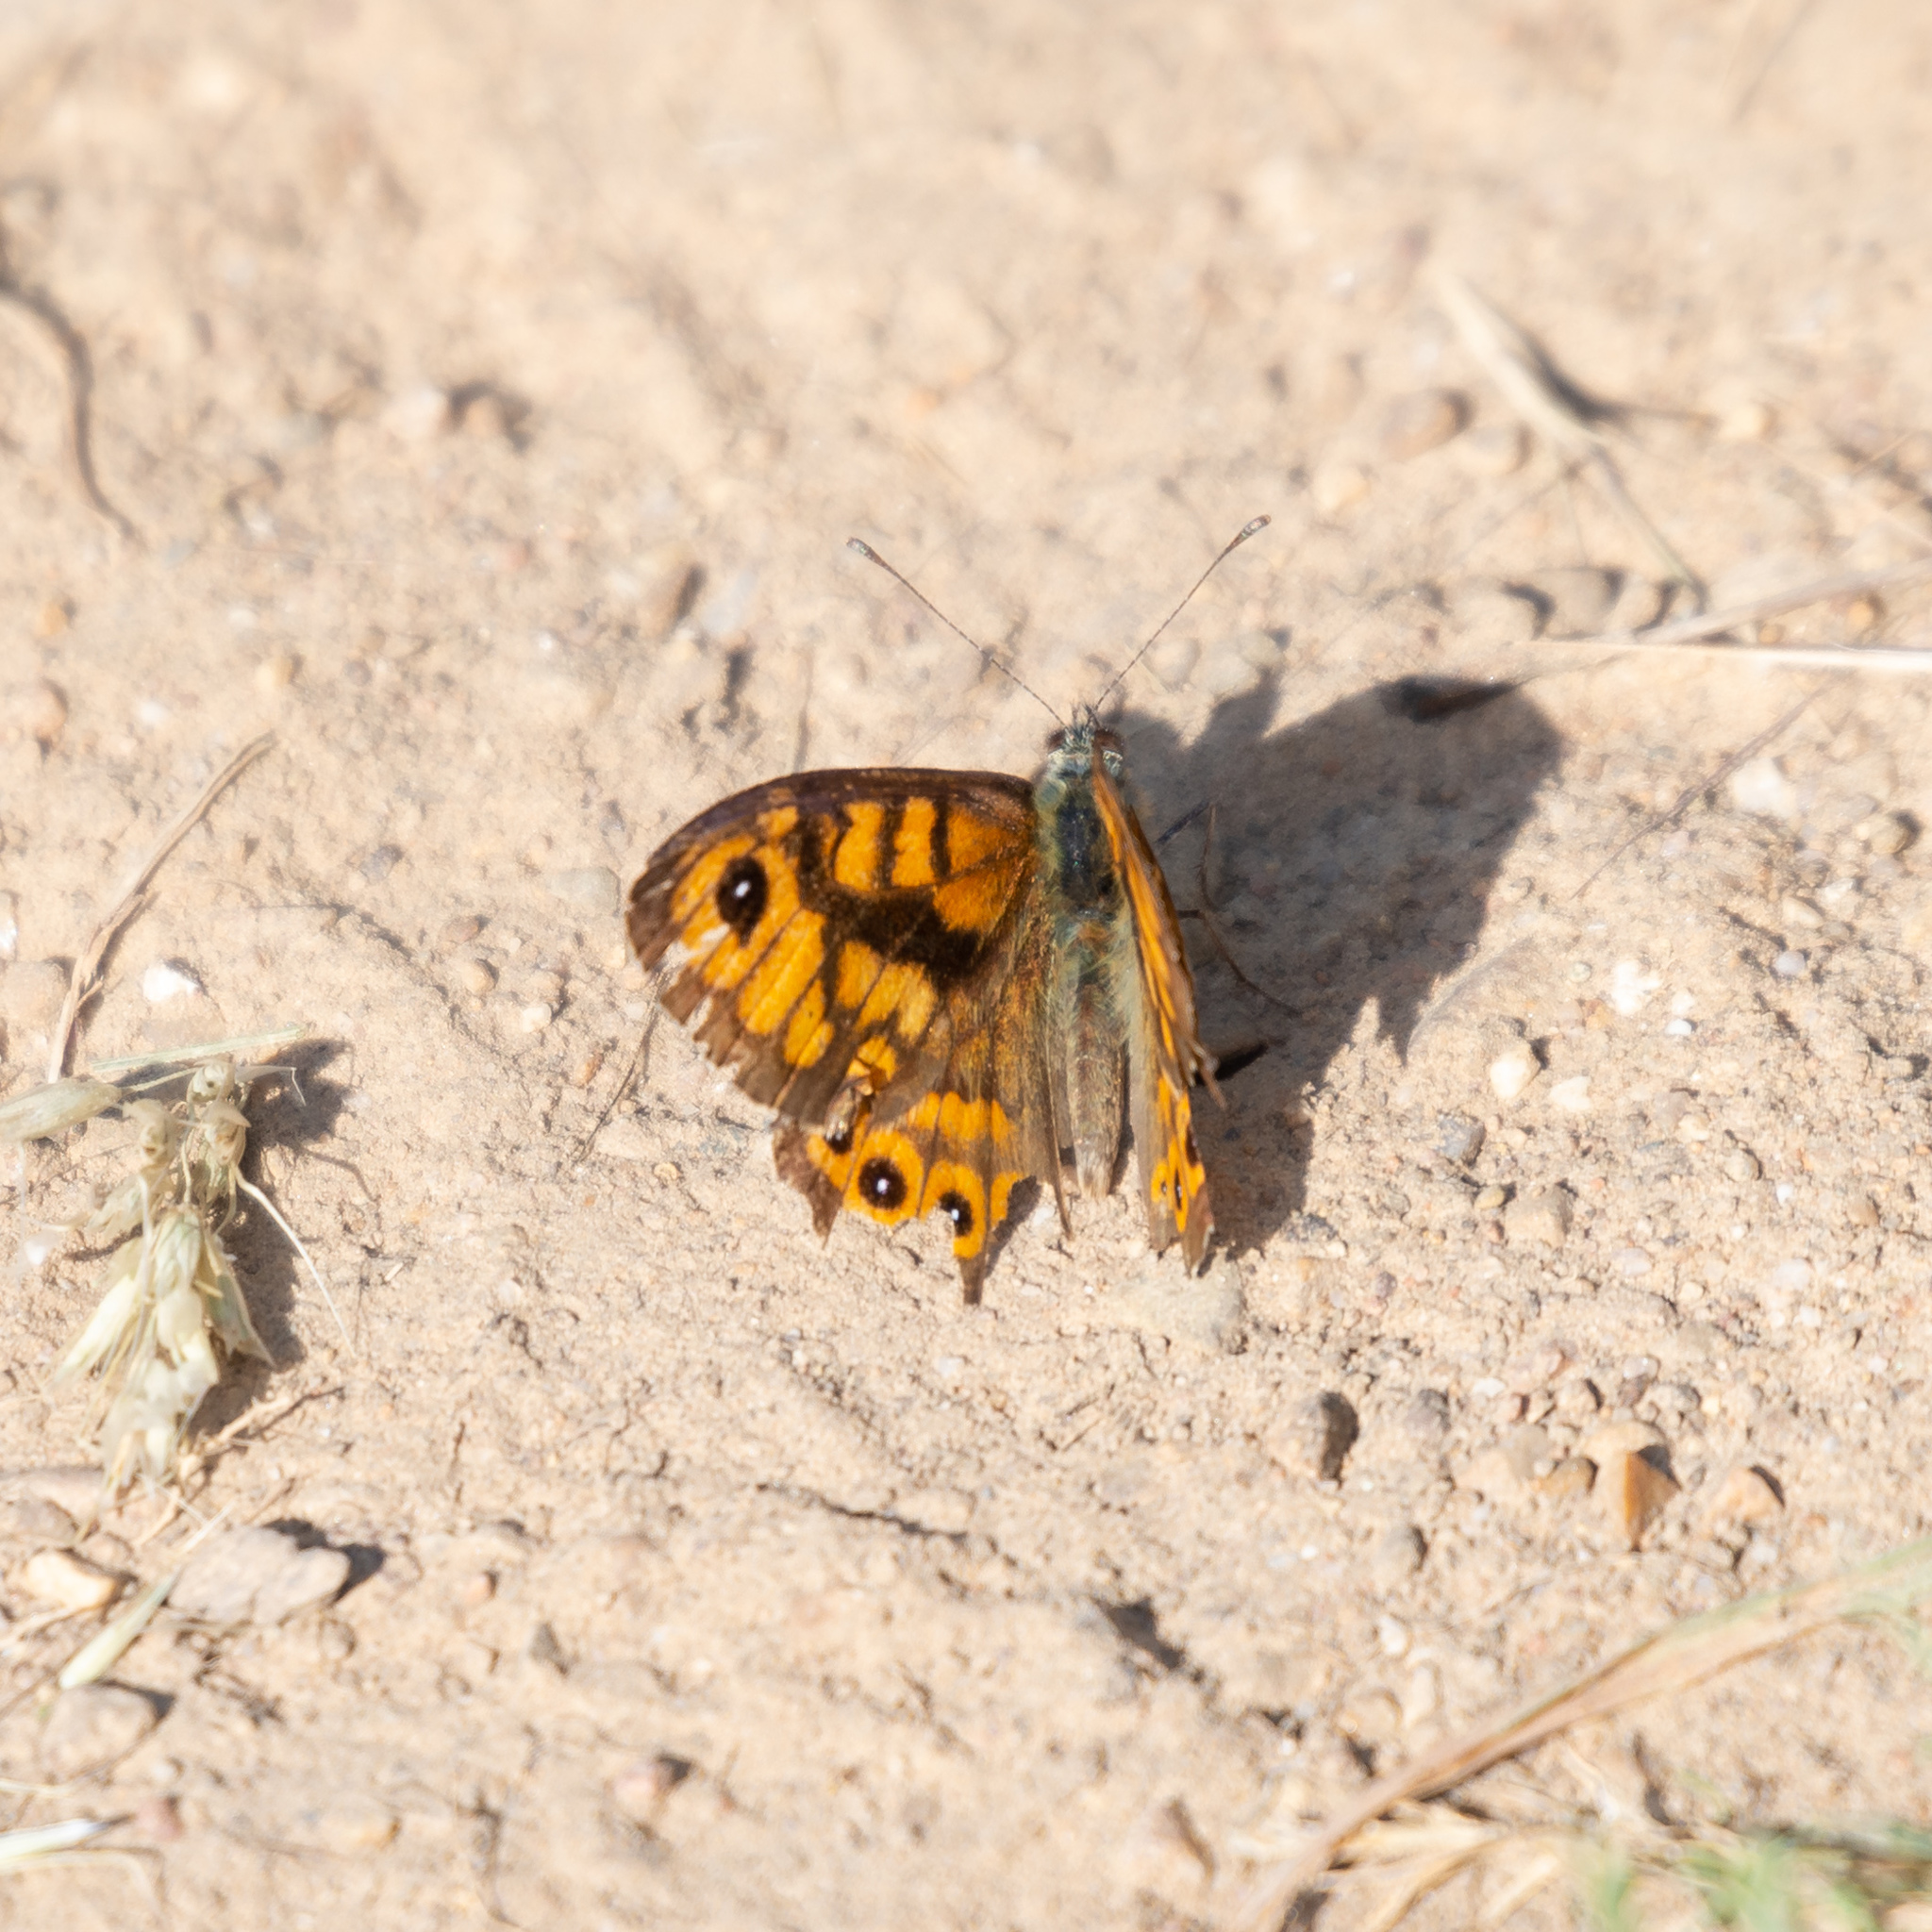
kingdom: Animalia
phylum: Arthropoda
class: Insecta
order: Lepidoptera
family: Nymphalidae
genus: Pararge
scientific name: Pararge Lasiommata megera
